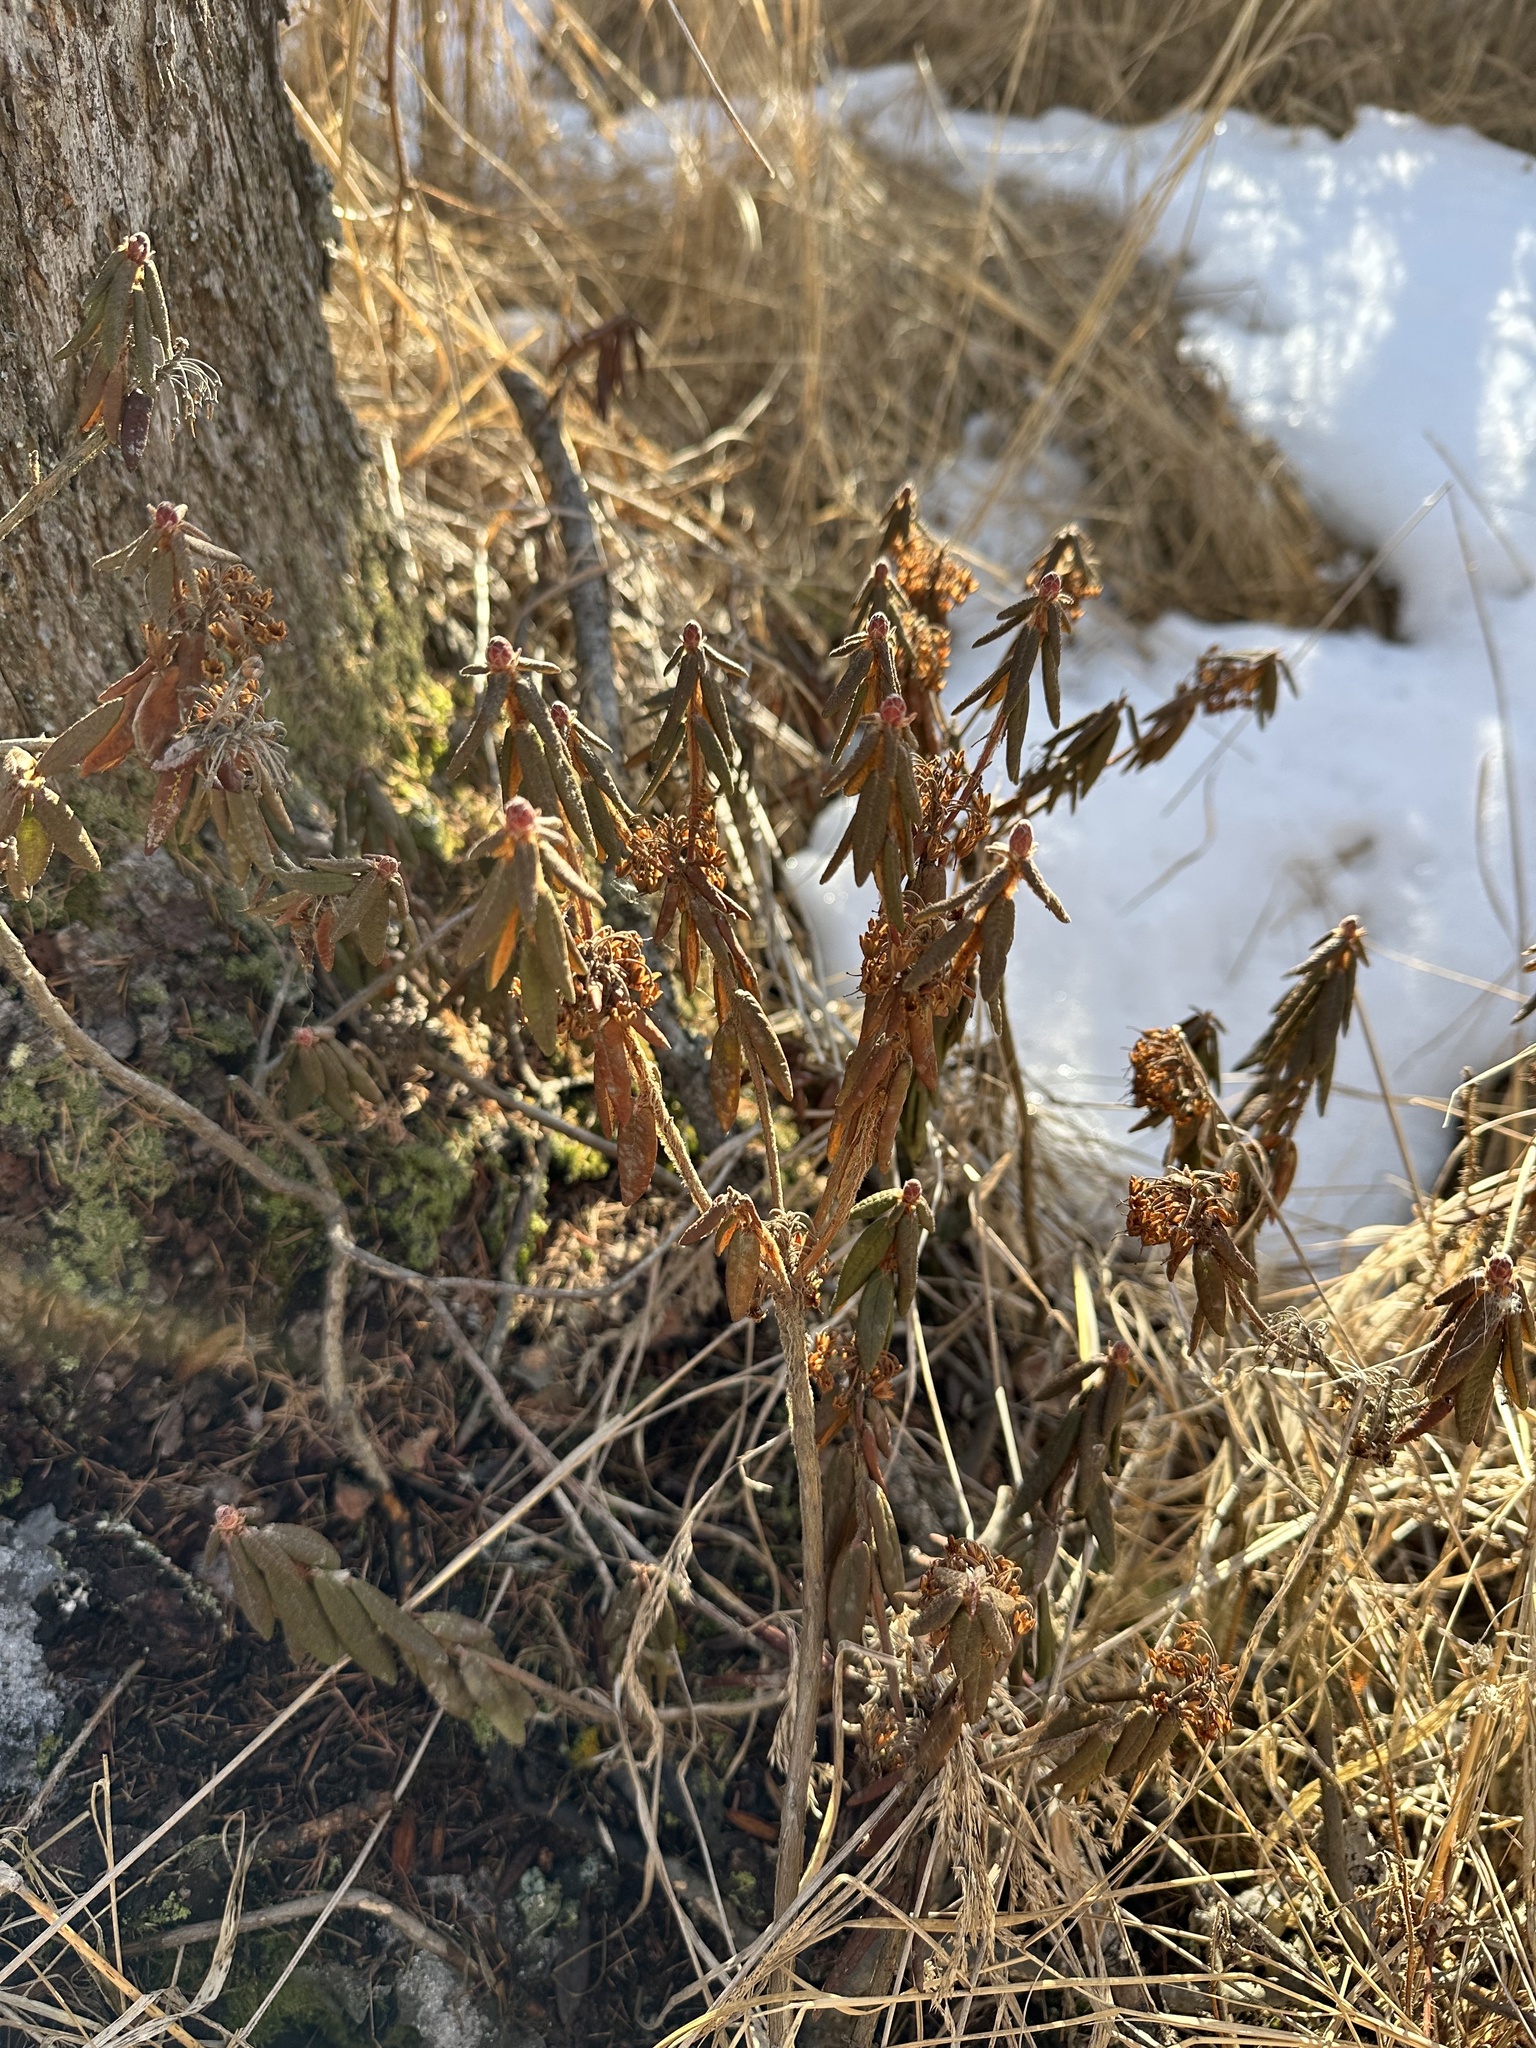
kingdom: Plantae
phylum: Tracheophyta
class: Magnoliopsida
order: Ericales
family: Ericaceae
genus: Rhododendron
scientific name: Rhododendron groenlandicum
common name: Bog labrador tea
